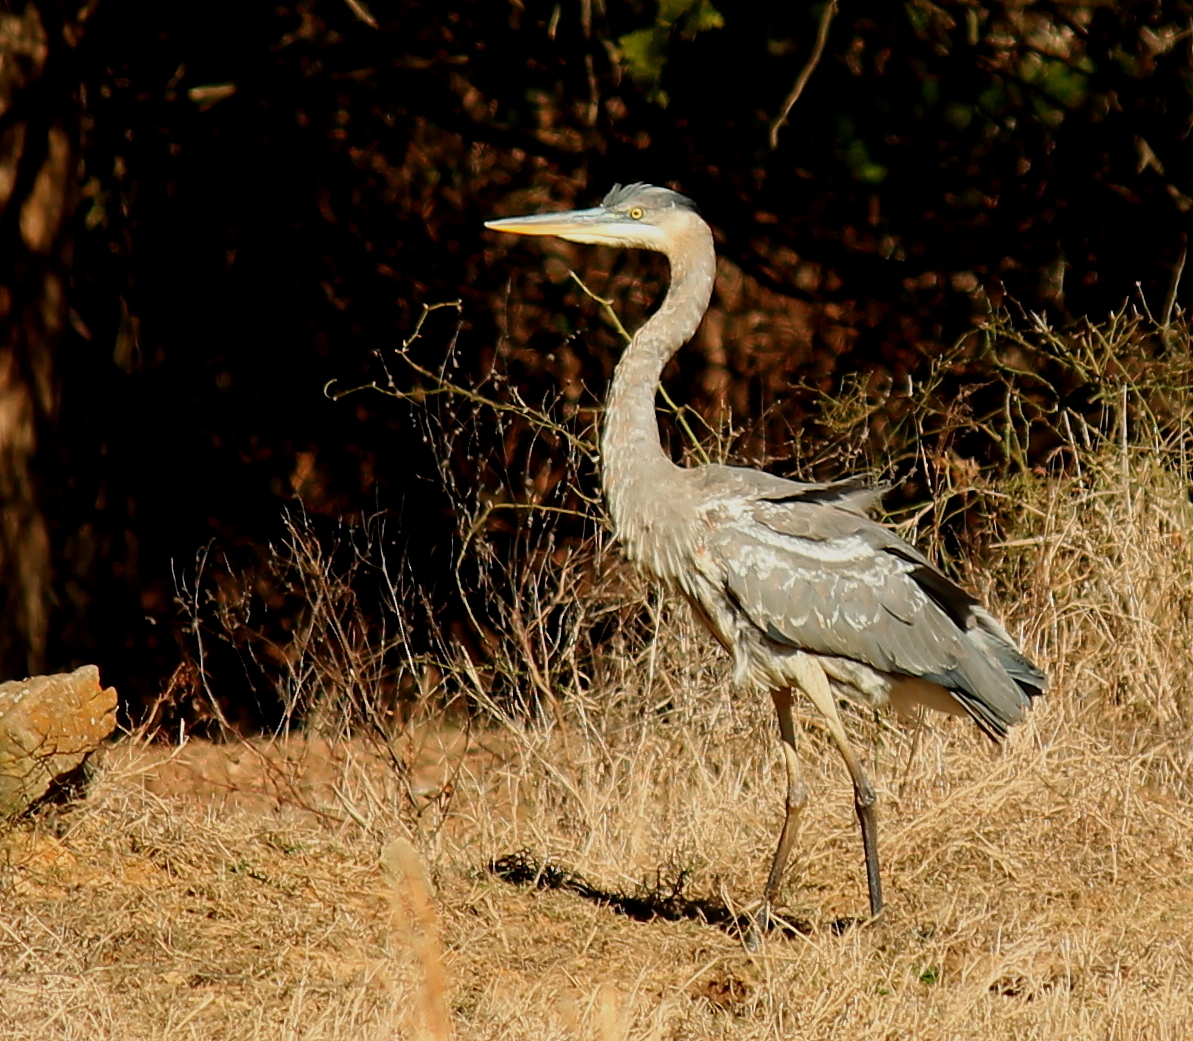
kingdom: Animalia
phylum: Chordata
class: Aves
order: Pelecaniformes
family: Ardeidae
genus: Ardea
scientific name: Ardea herodias
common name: Great blue heron
